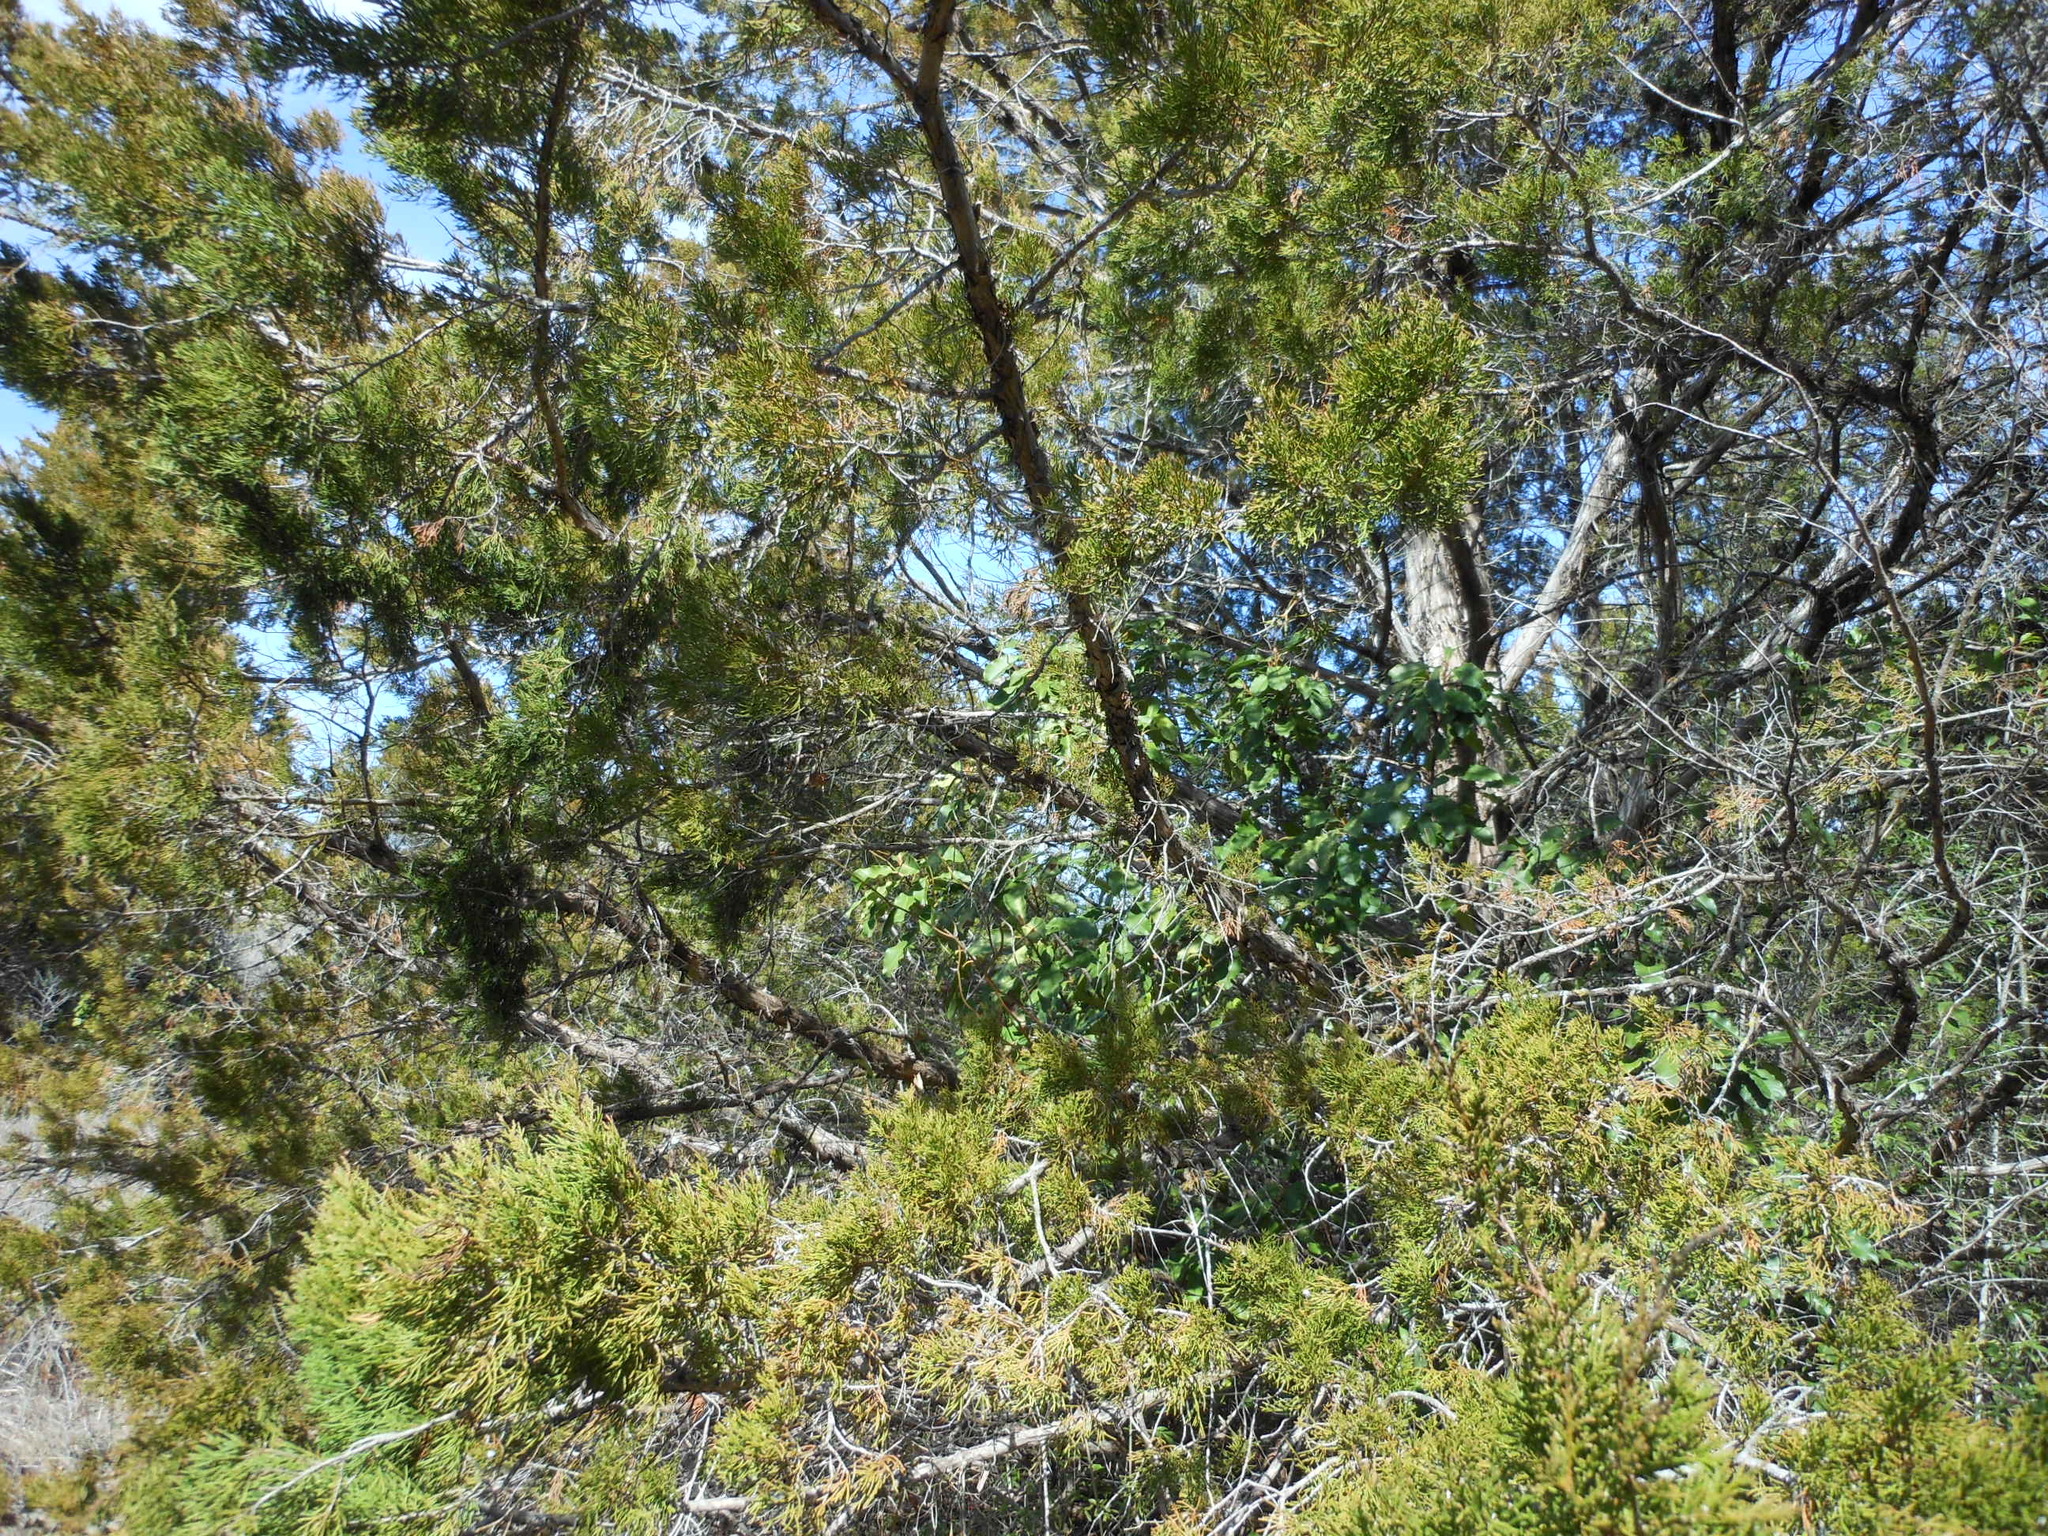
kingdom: Plantae
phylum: Tracheophyta
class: Pinopsida
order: Pinales
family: Cupressaceae
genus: Juniperus
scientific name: Juniperus virginiana
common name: Red juniper
